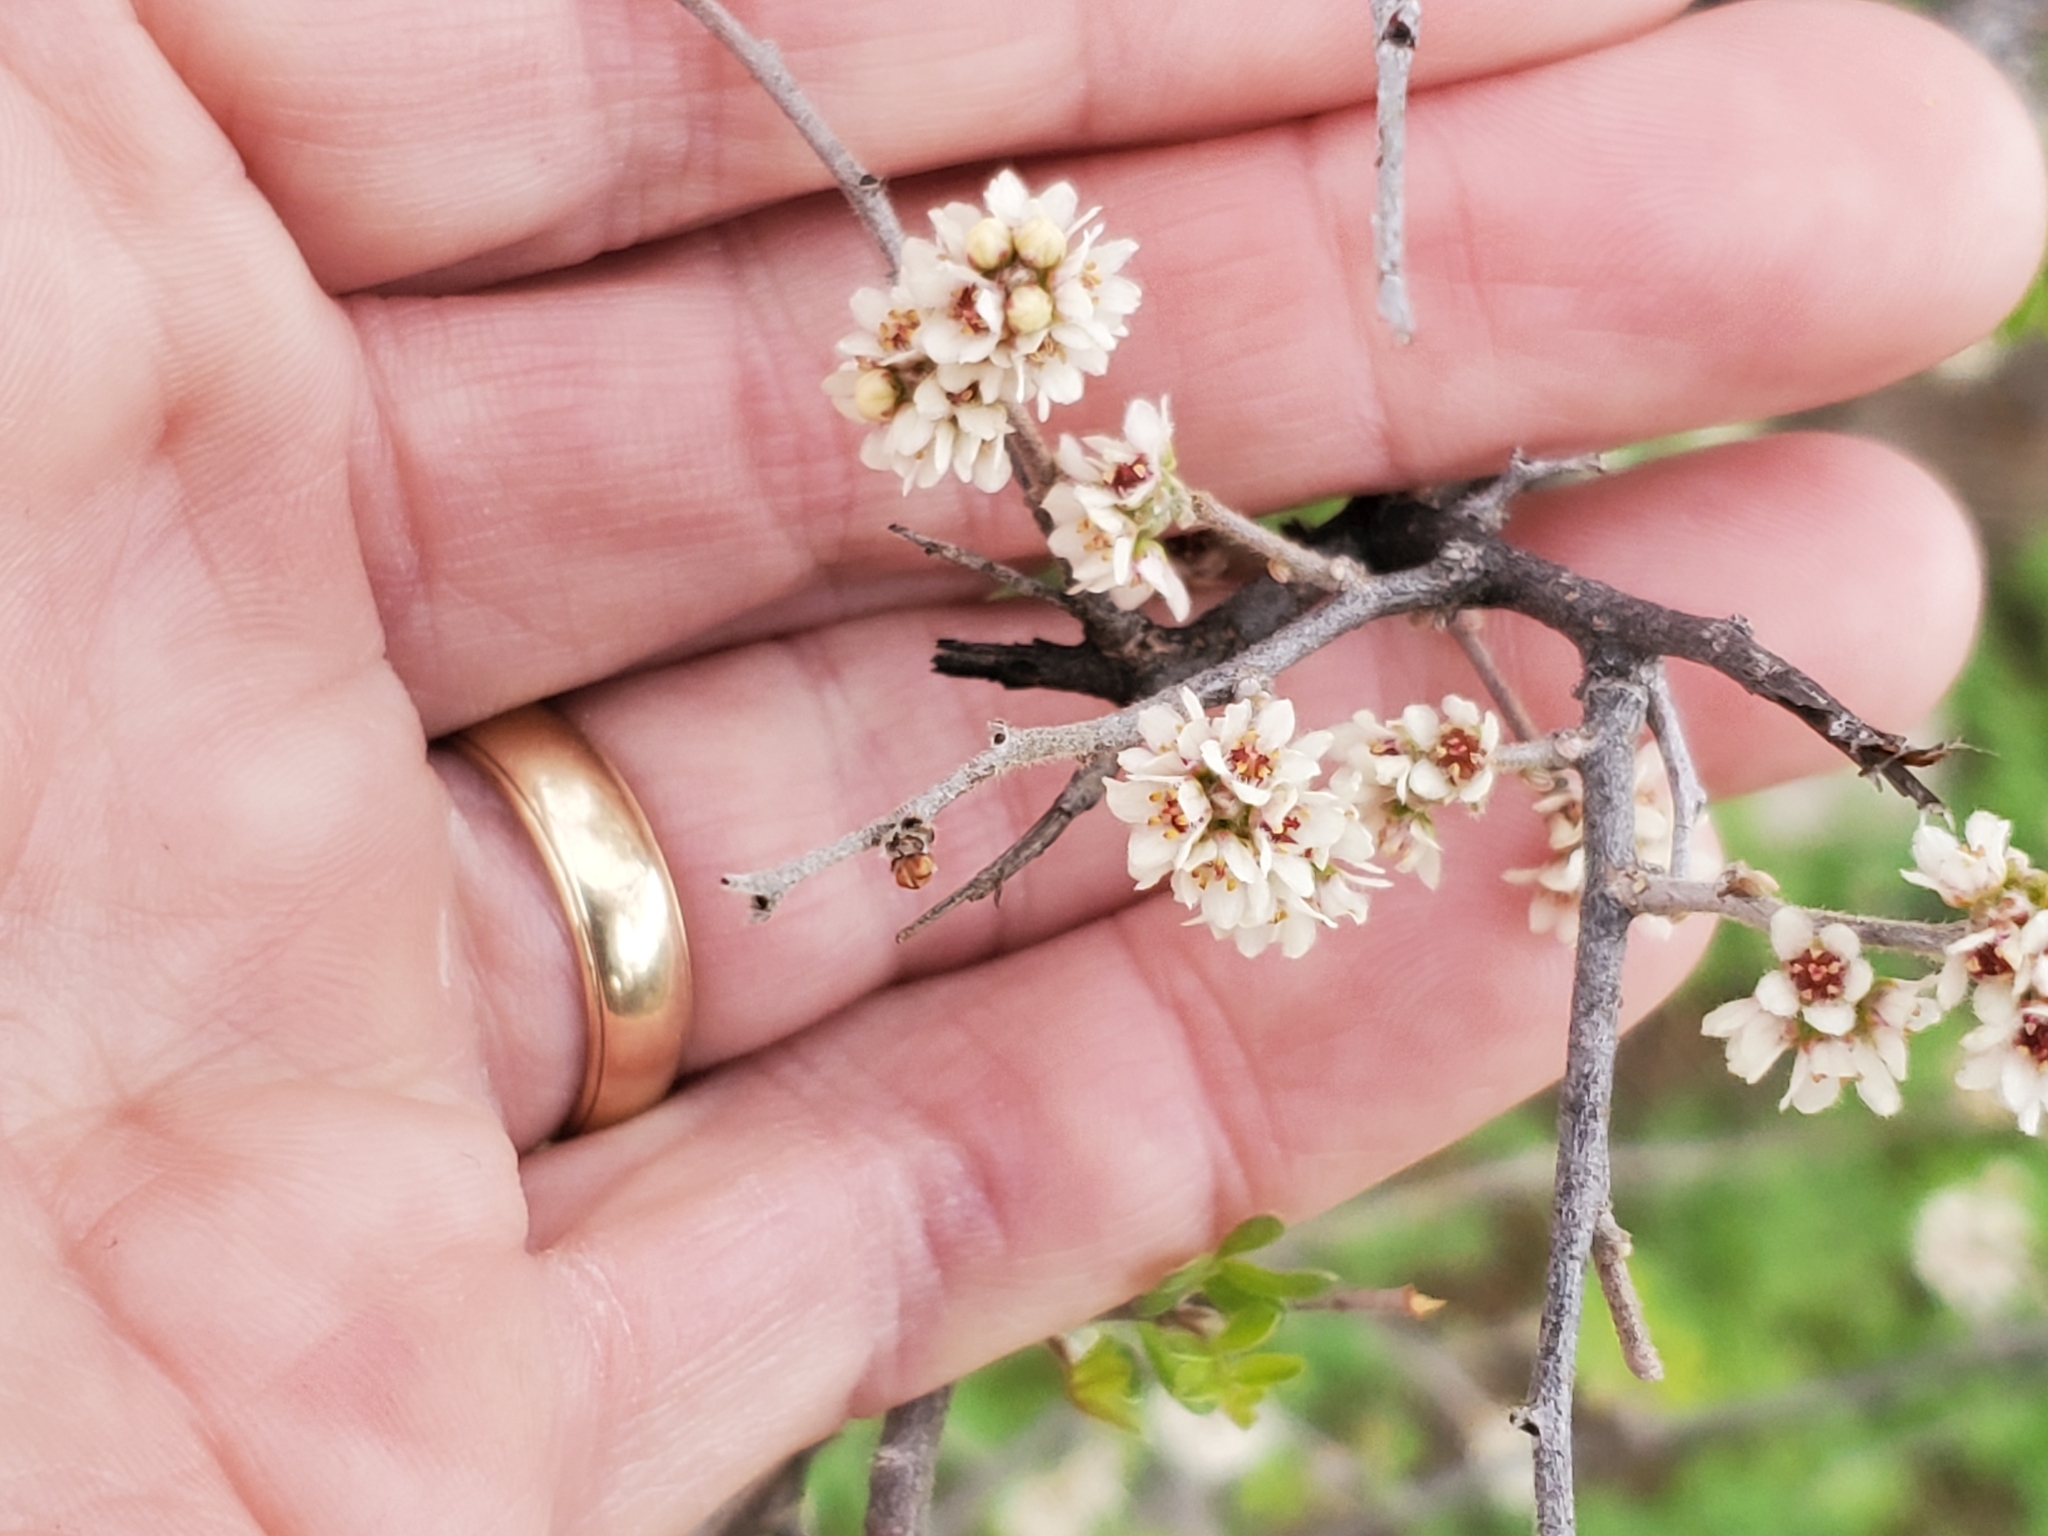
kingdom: Plantae
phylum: Tracheophyta
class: Magnoliopsida
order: Sapindales
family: Anacardiaceae
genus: Rhus
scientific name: Rhus microphylla
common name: Desert sumac
